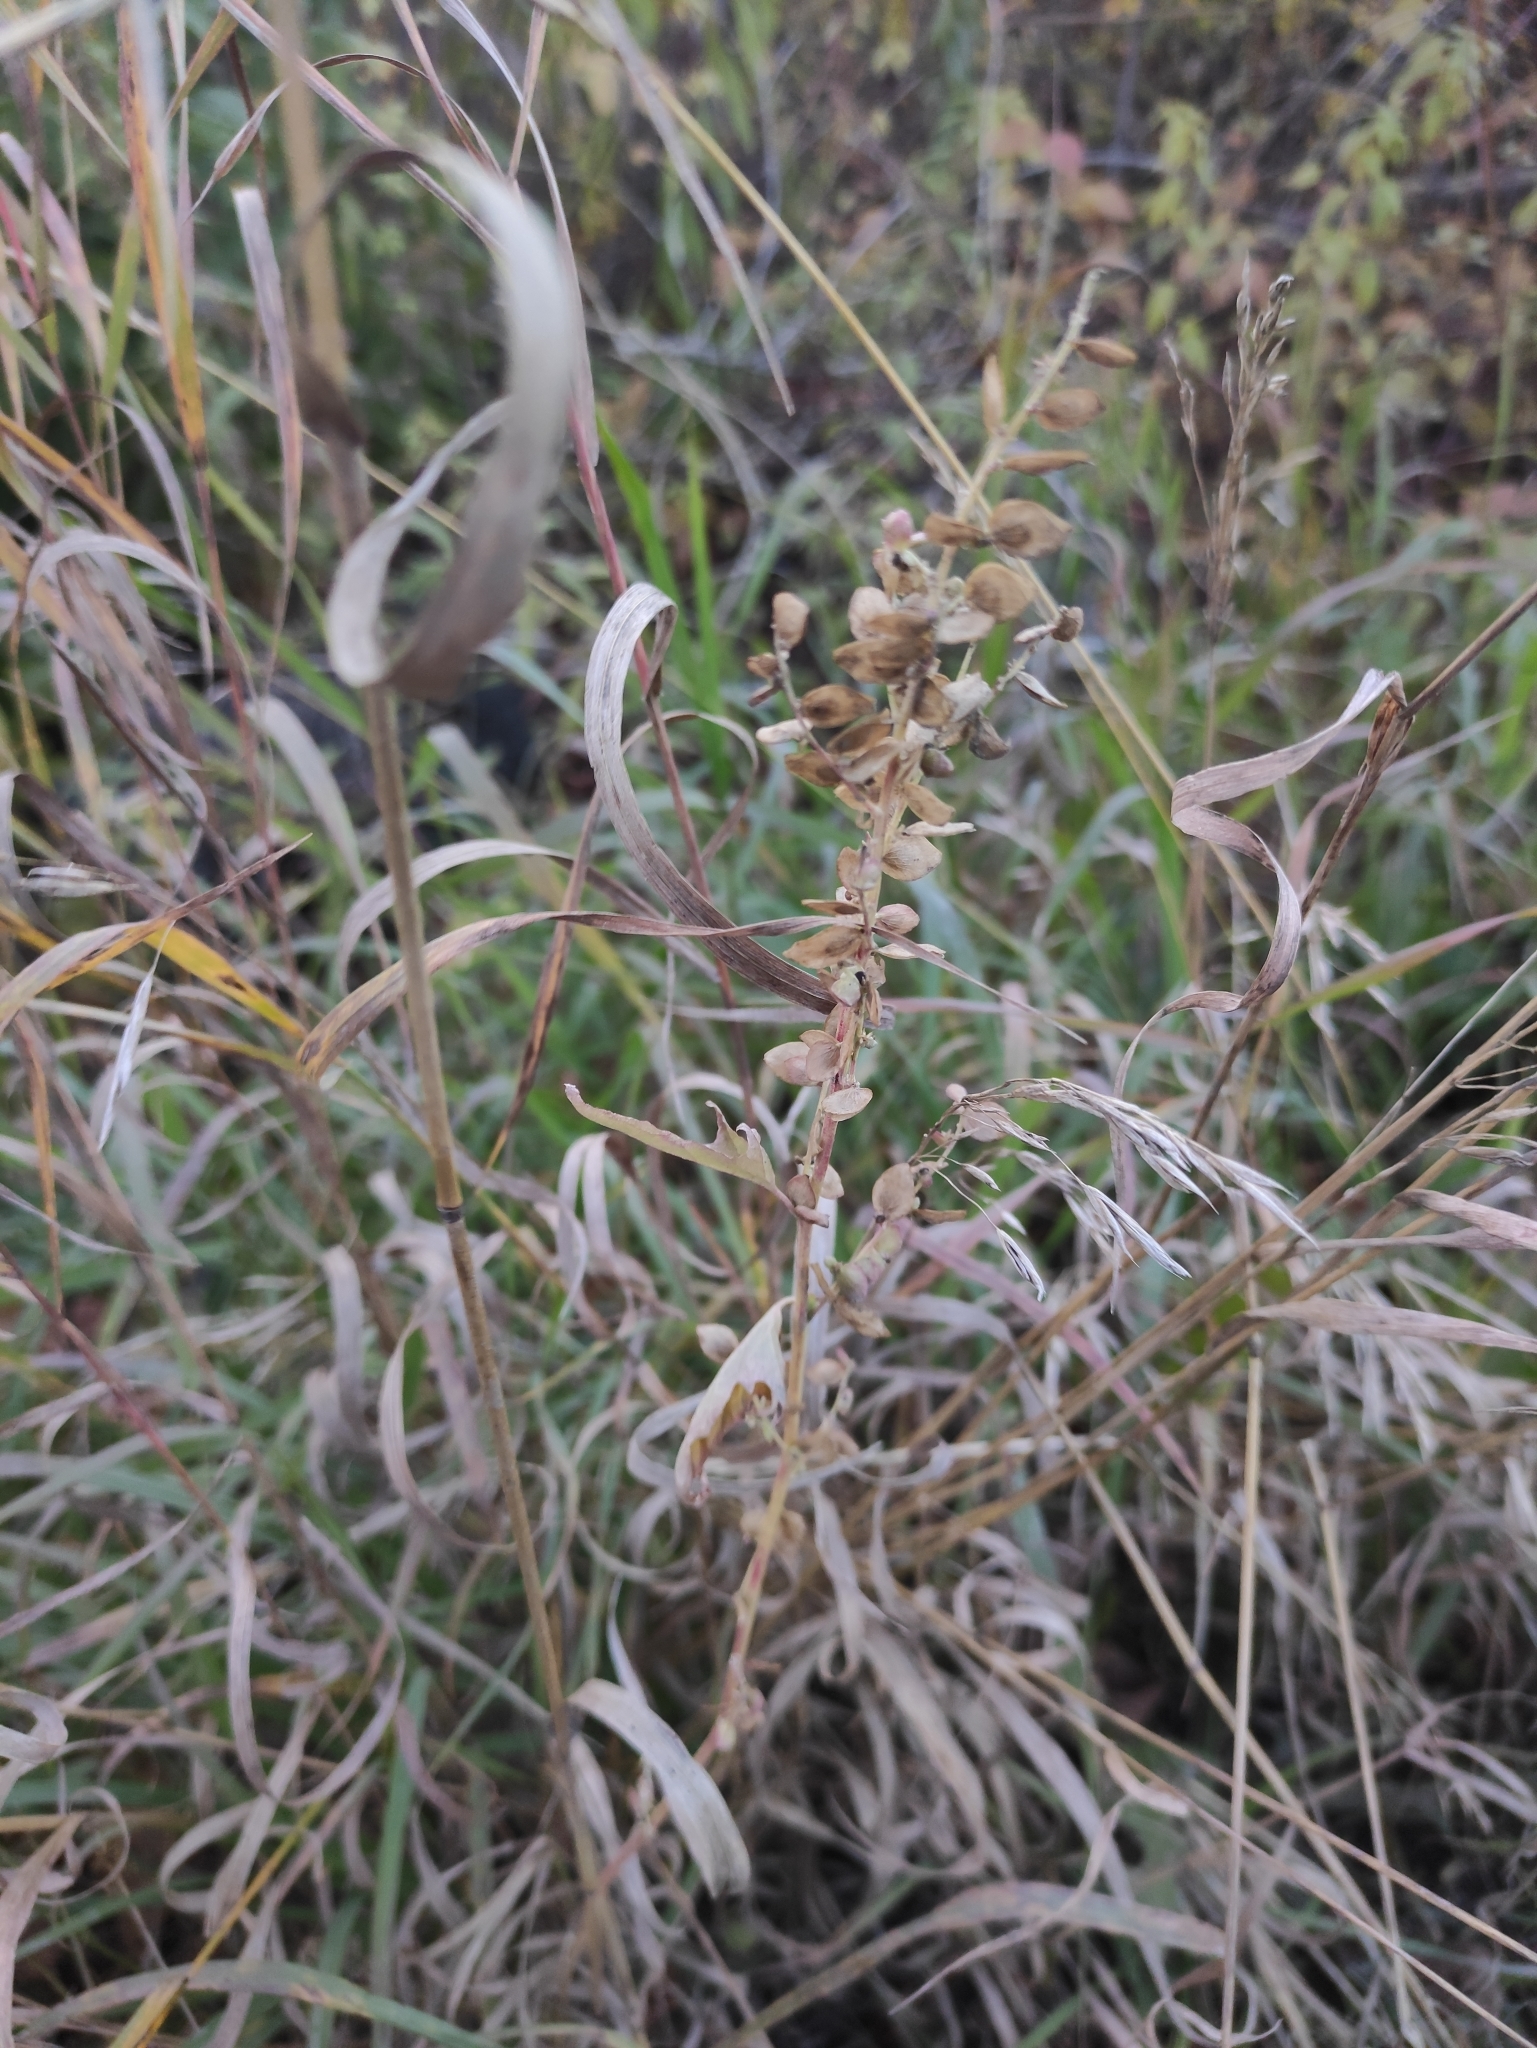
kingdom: Plantae
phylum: Tracheophyta
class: Magnoliopsida
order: Caryophyllales
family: Amaranthaceae
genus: Atriplex
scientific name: Atriplex sagittata
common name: Purple orache
